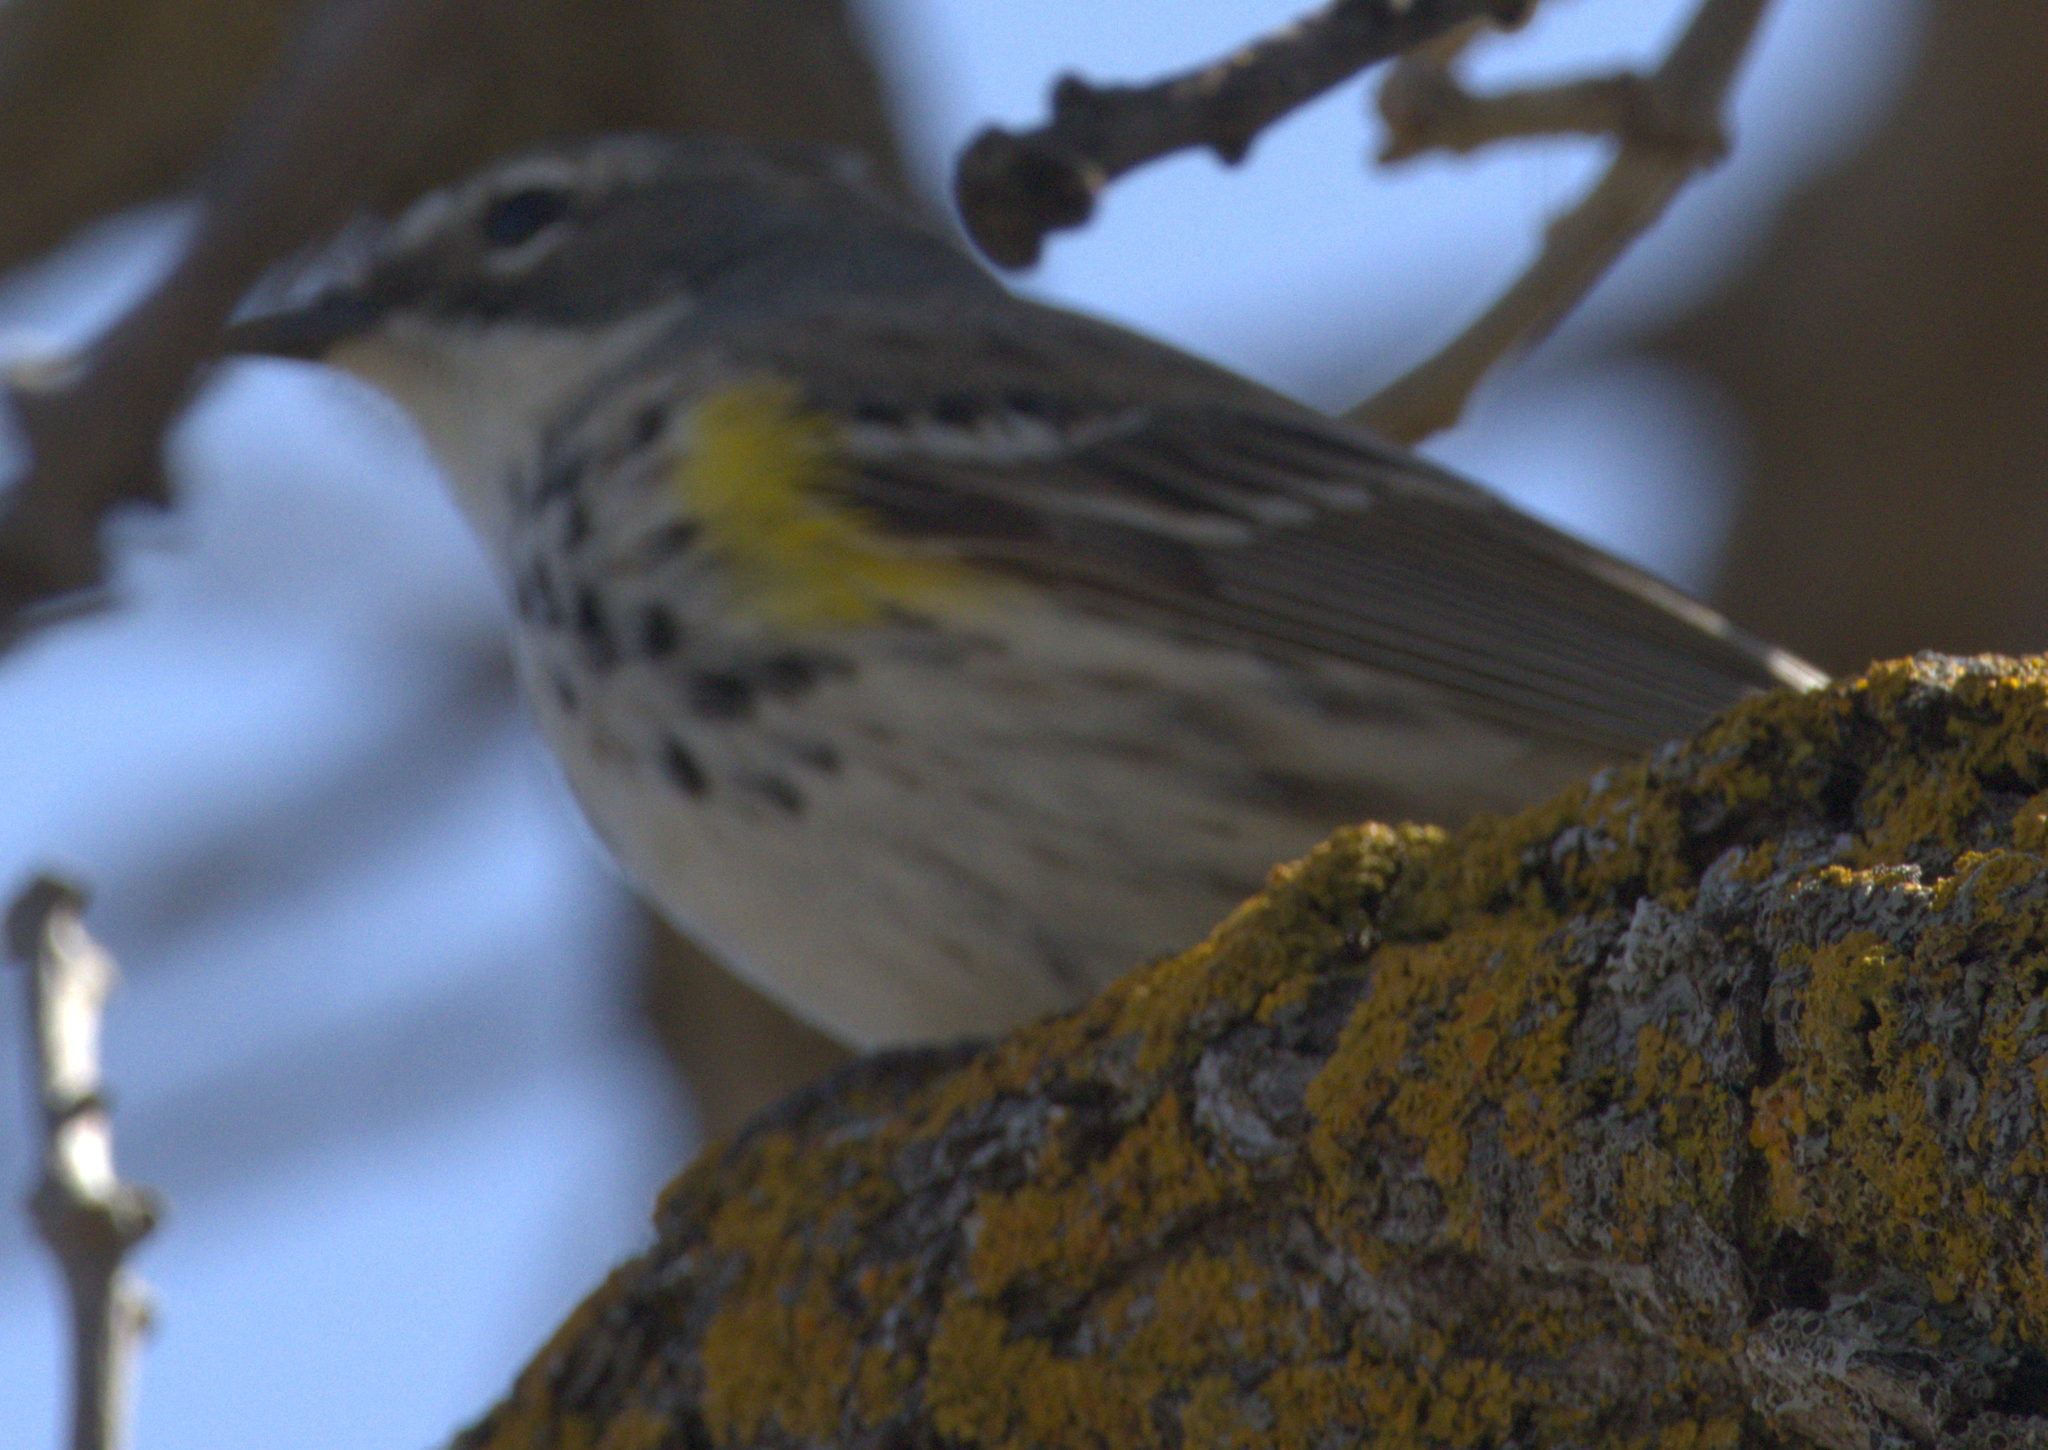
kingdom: Animalia
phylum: Chordata
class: Aves
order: Passeriformes
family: Parulidae
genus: Setophaga
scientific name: Setophaga coronata
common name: Myrtle warbler
